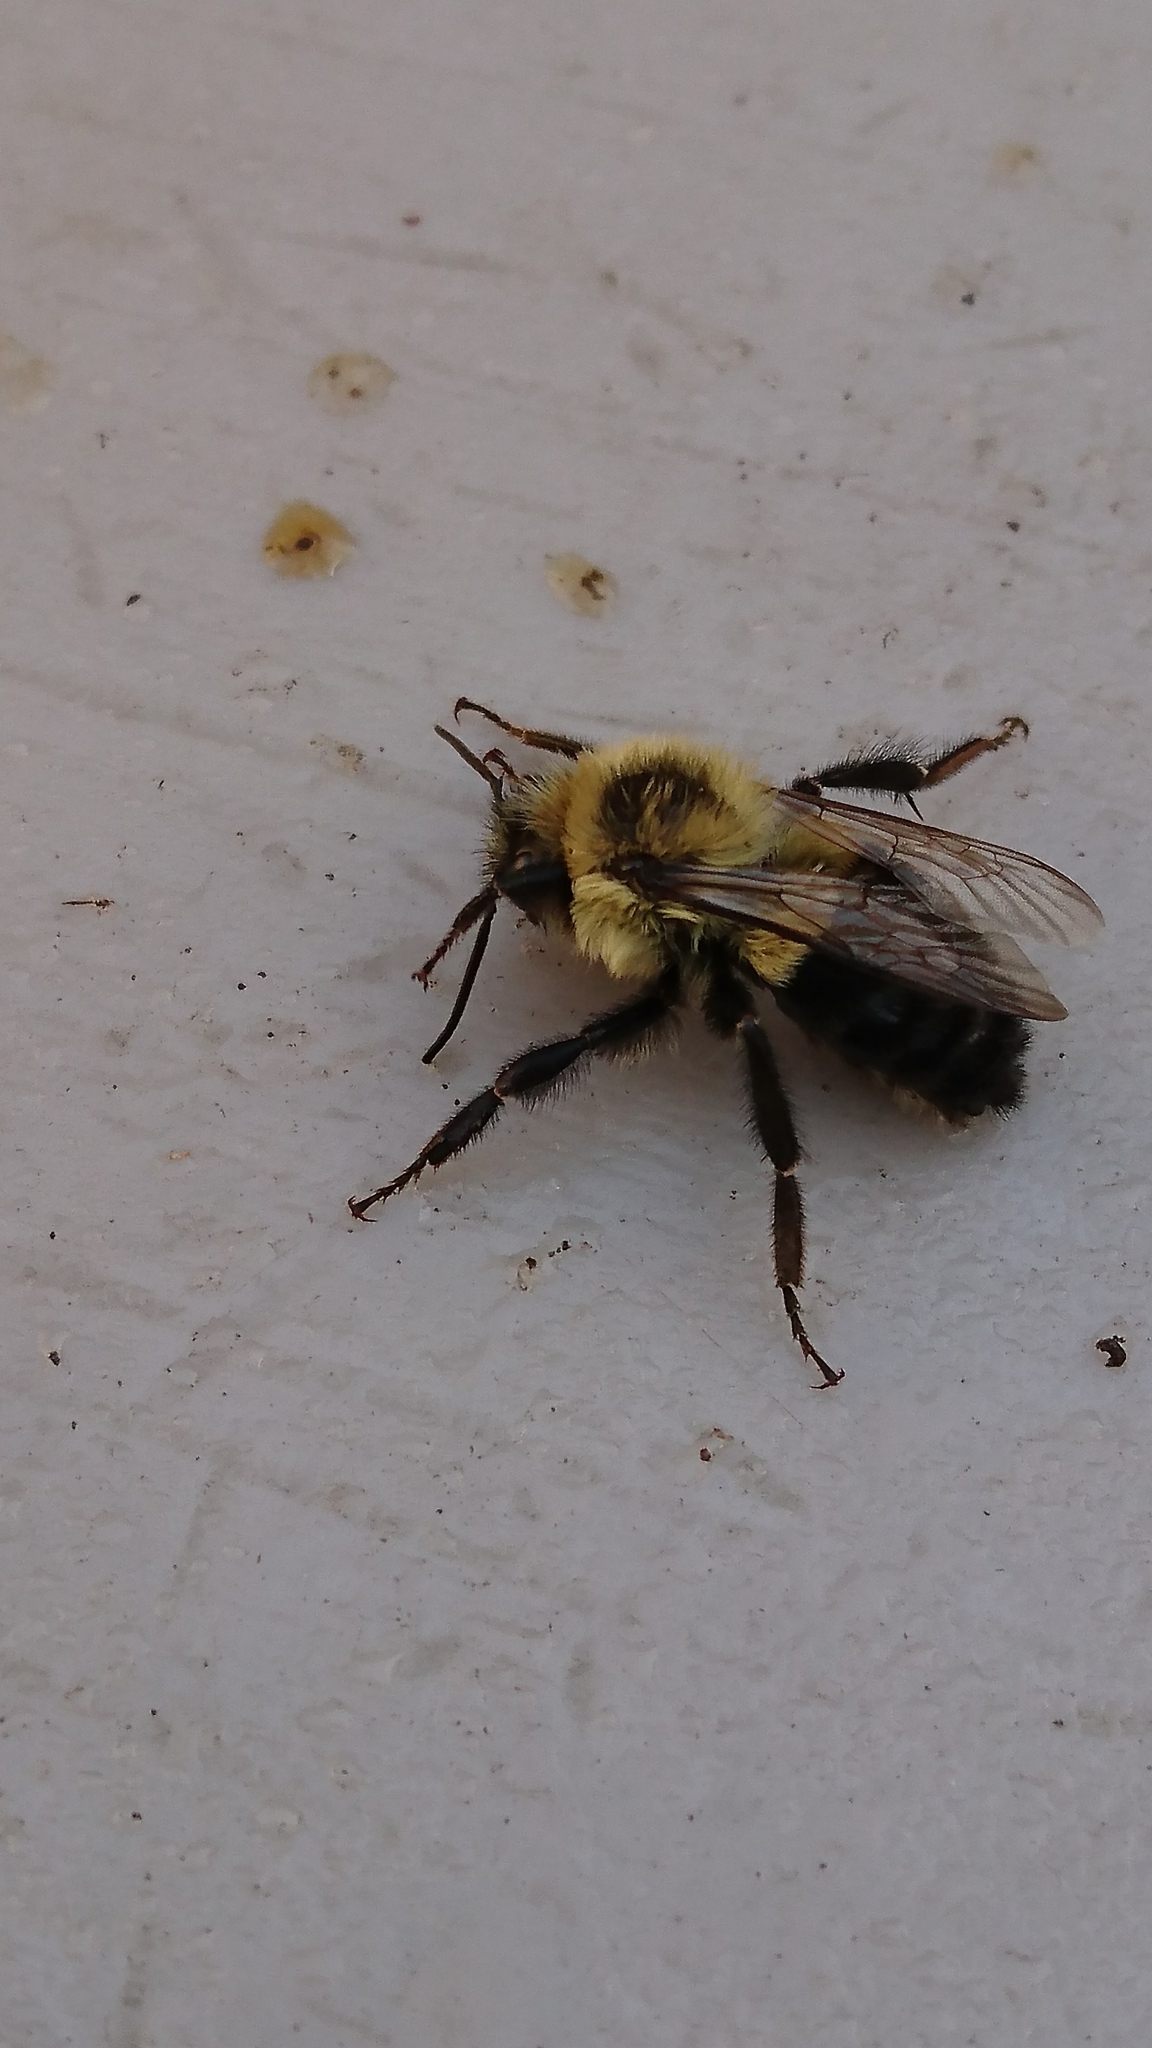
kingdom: Animalia
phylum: Arthropoda
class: Insecta
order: Hymenoptera
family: Apidae
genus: Bombus
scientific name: Bombus impatiens
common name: Common eastern bumble bee
